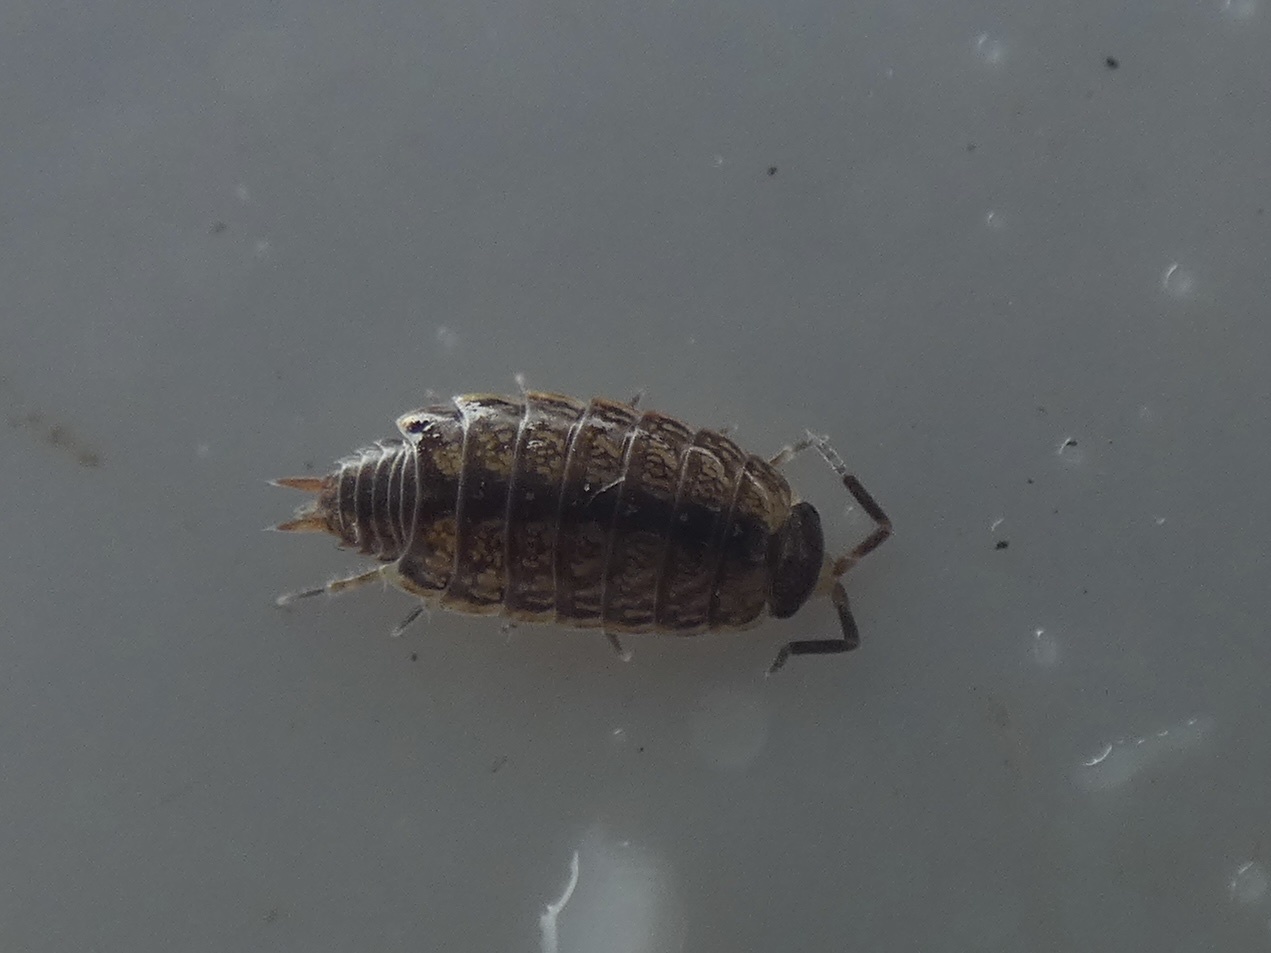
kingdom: Animalia
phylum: Arthropoda
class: Malacostraca
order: Isopoda
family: Philosciidae
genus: Philoscia
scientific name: Philoscia muscorum
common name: Common striped woodlouse
